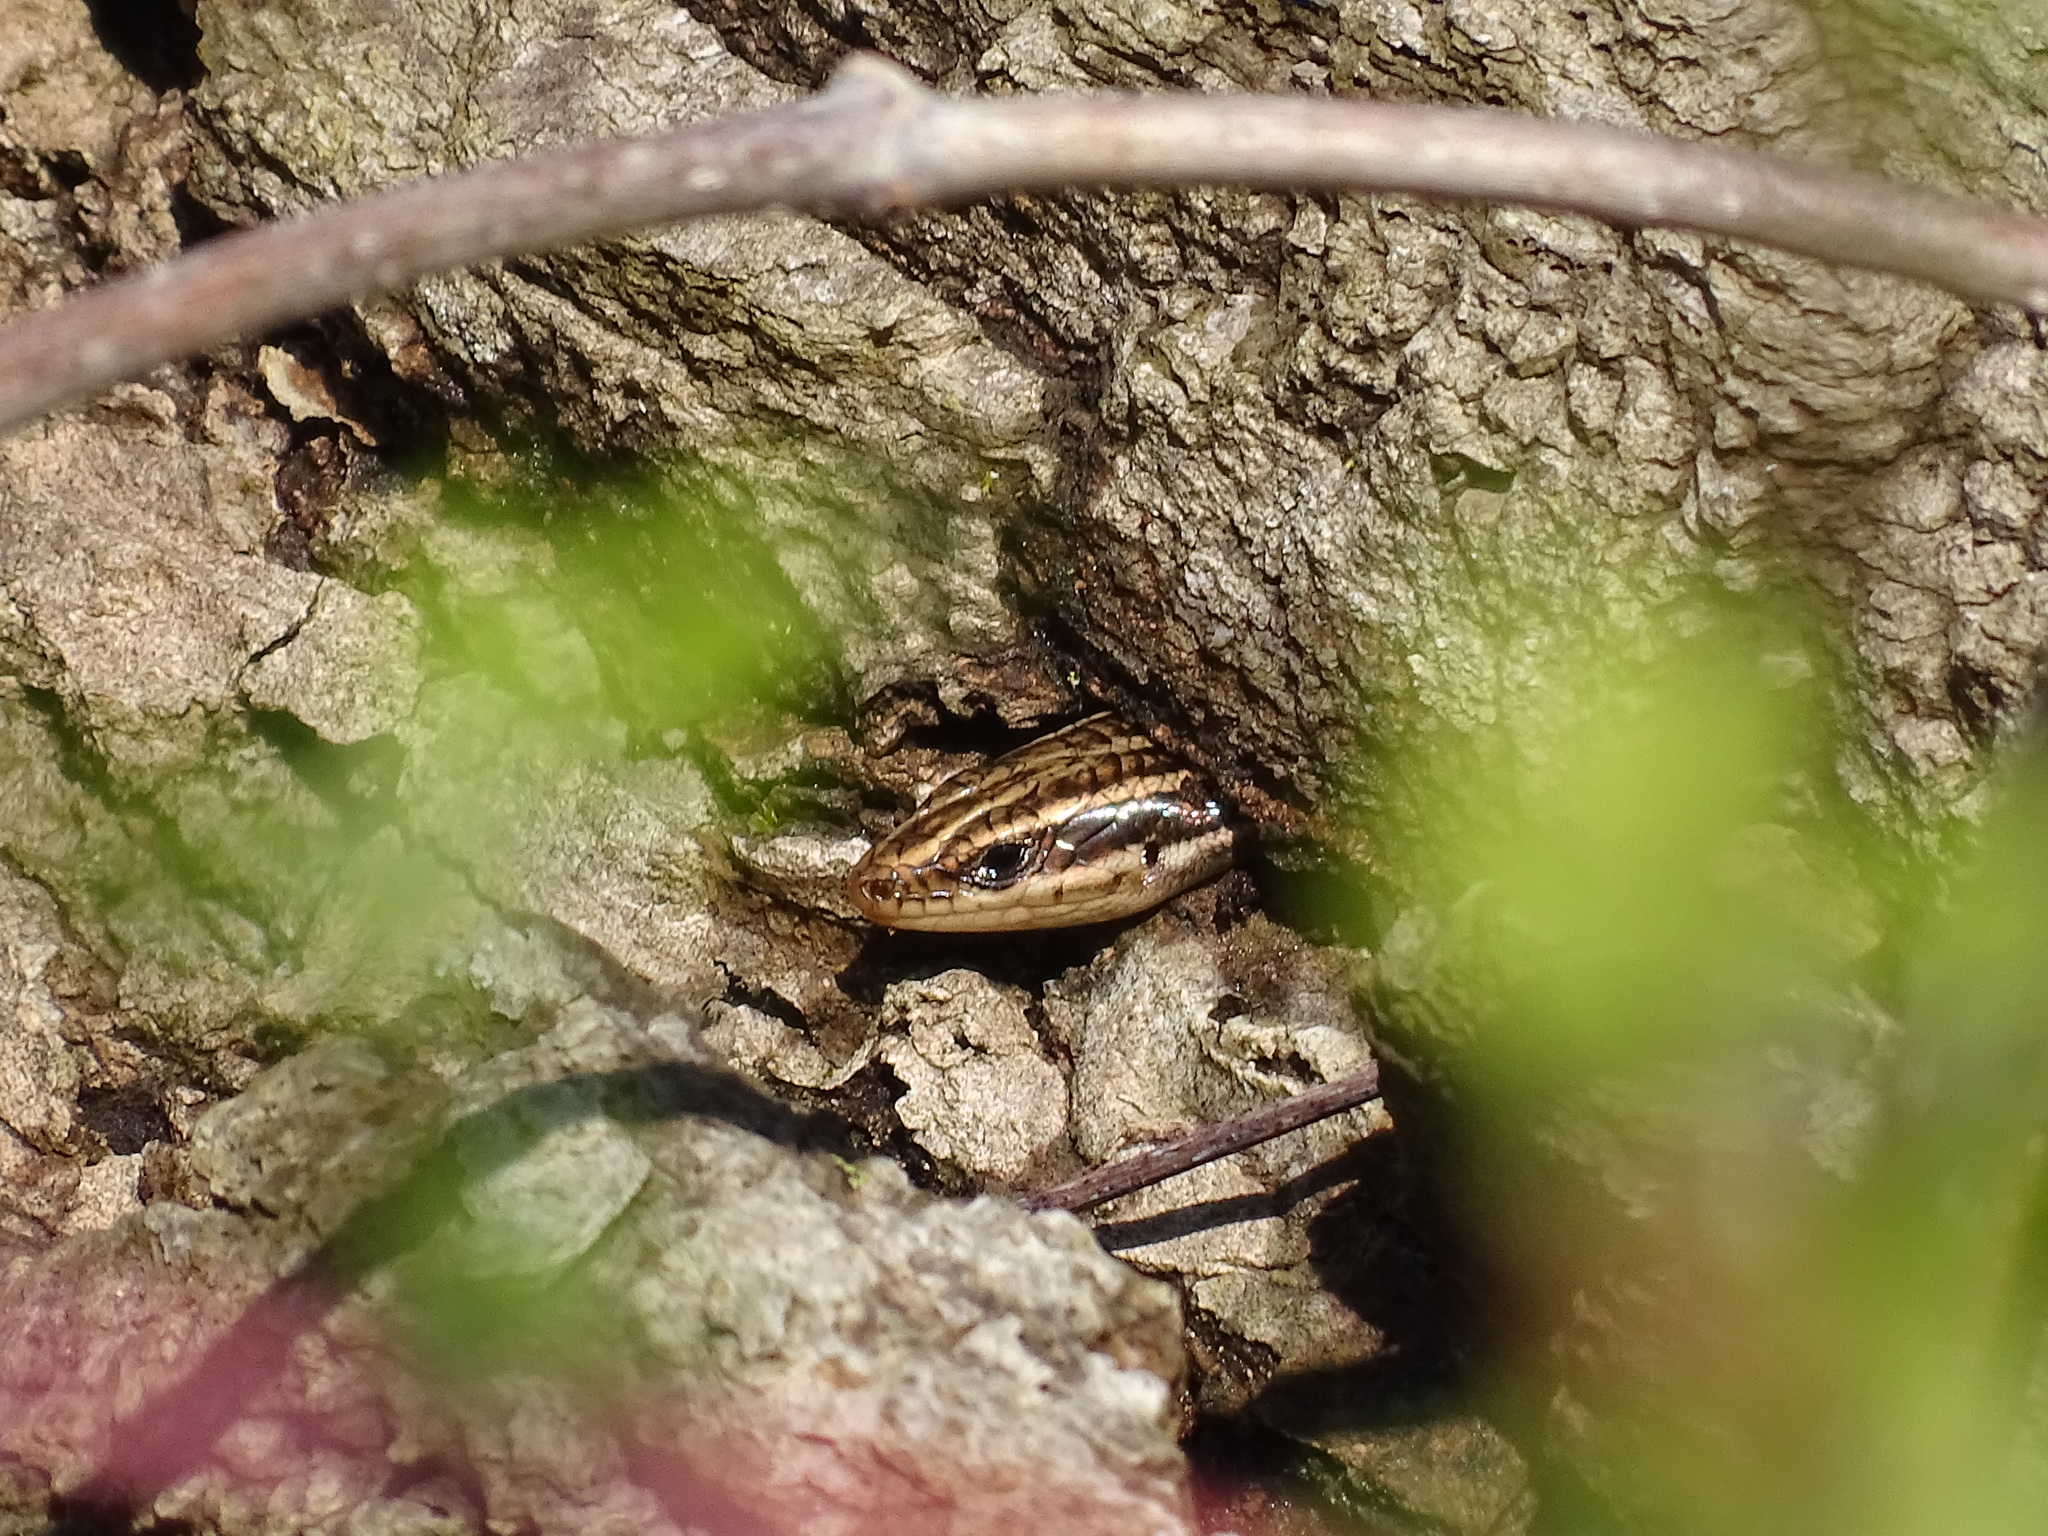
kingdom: Animalia
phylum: Chordata
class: Squamata
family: Scincidae
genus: Plestiodon
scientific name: Plestiodon fasciatus
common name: Five-lined skink
